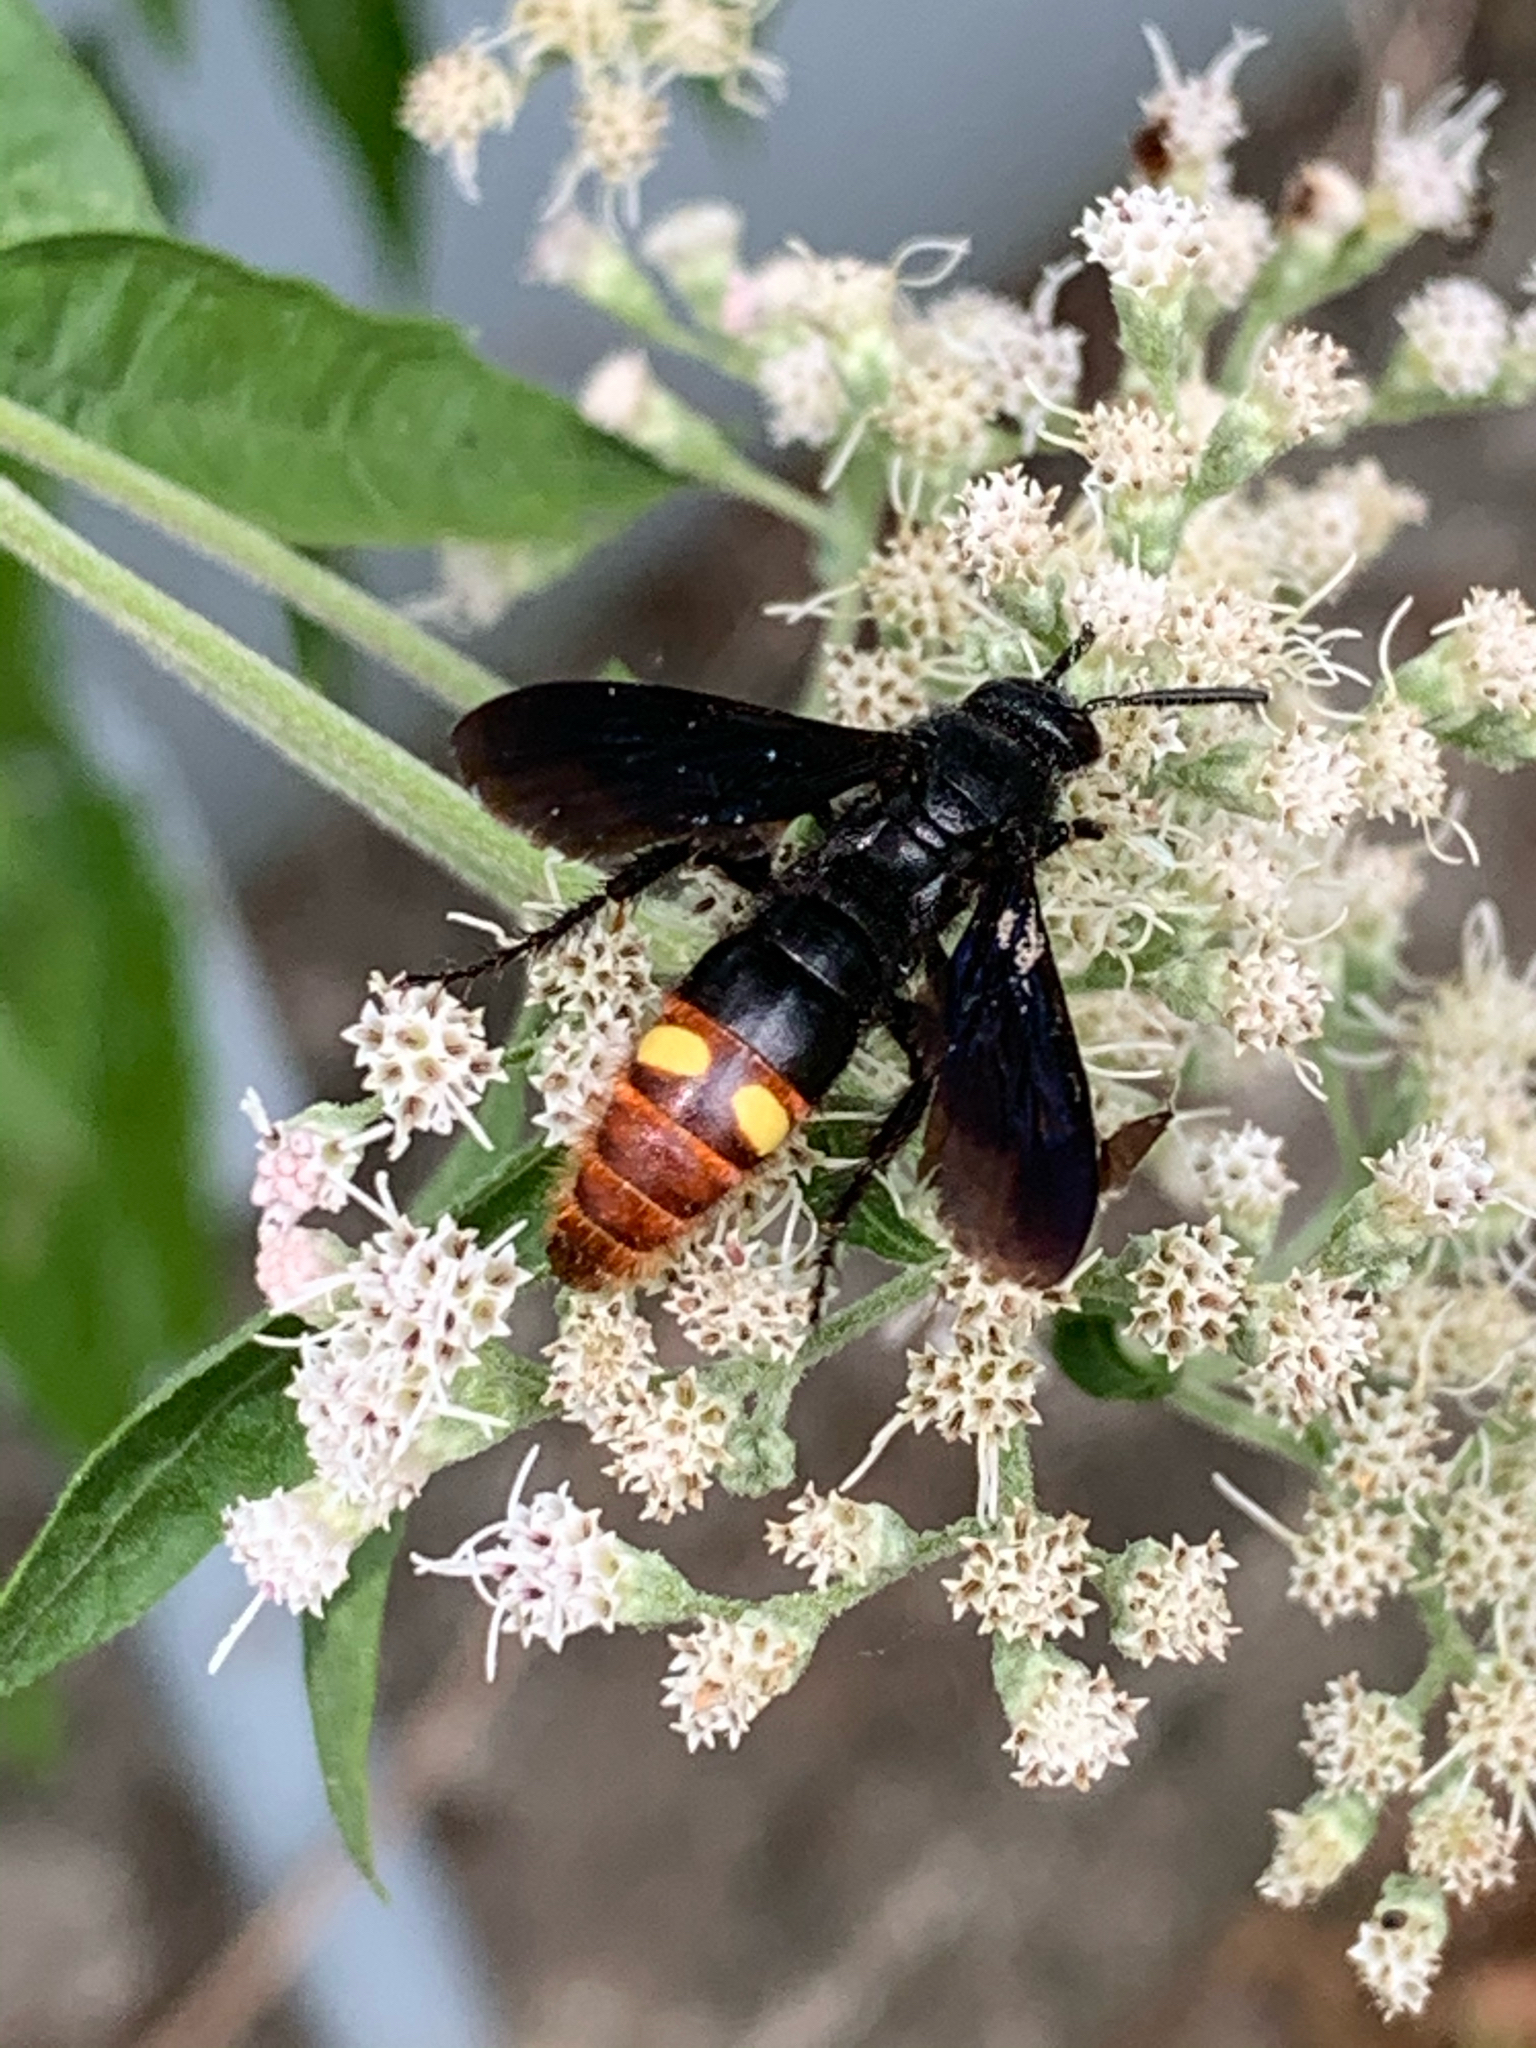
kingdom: Animalia
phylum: Arthropoda
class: Insecta
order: Hymenoptera
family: Scoliidae
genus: Scolia
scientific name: Scolia dubia
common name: Blue-winged scoliid wasp
